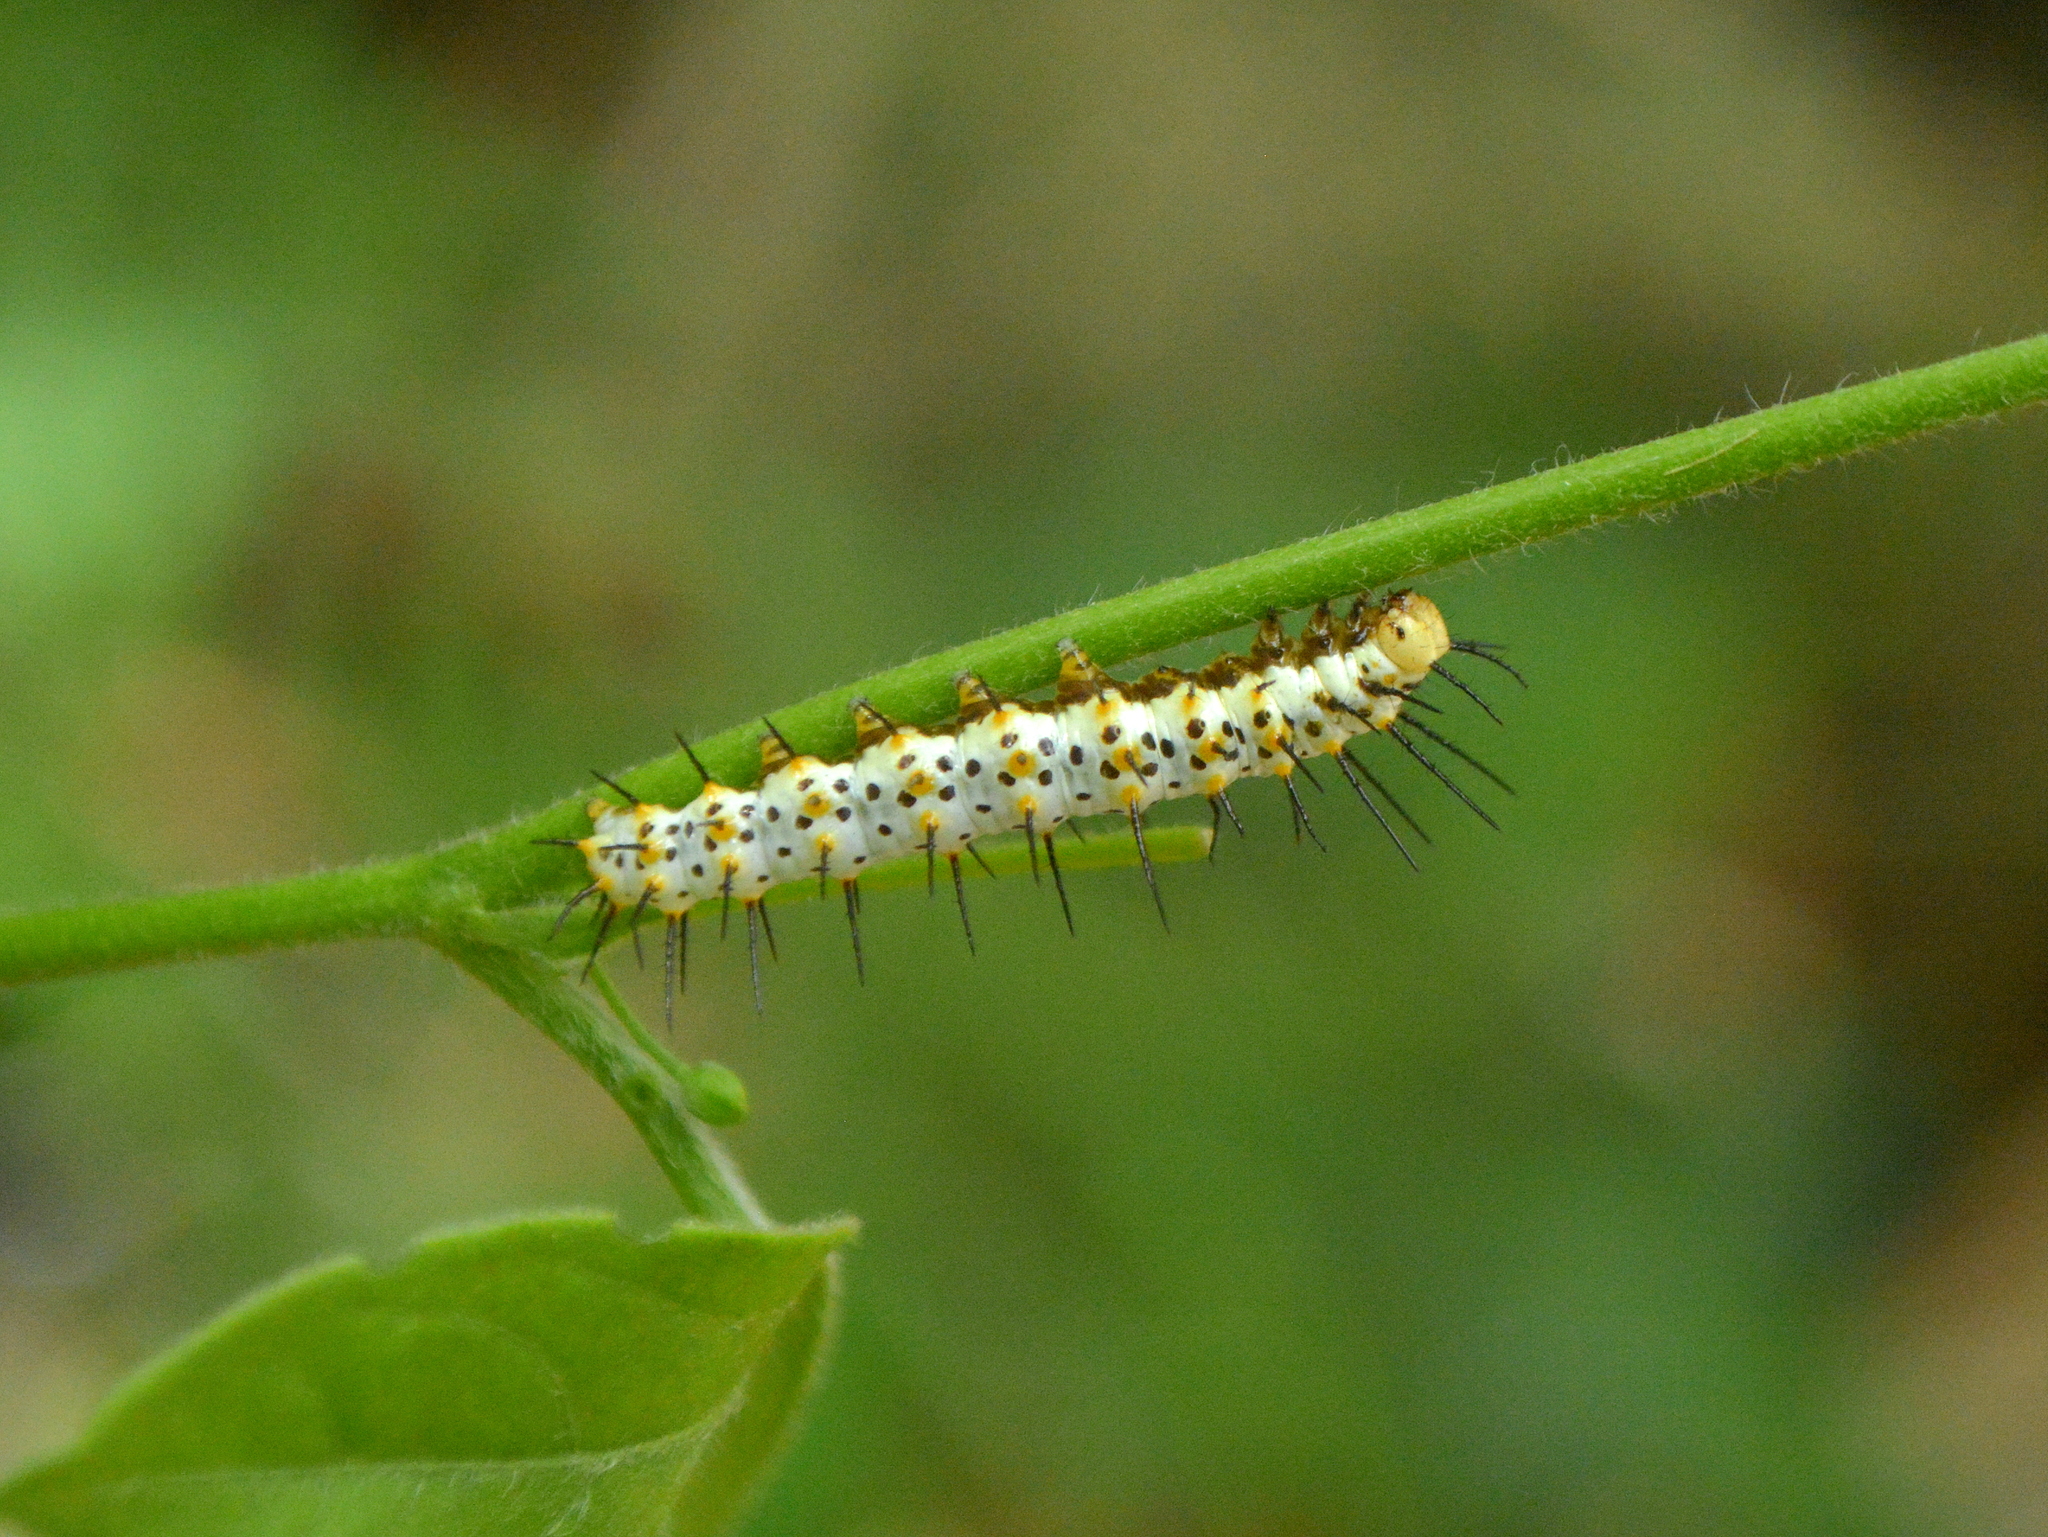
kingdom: Animalia
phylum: Arthropoda
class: Insecta
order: Lepidoptera
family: Nymphalidae
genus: Heliconius
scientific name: Heliconius erato
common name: Common patch longwing
